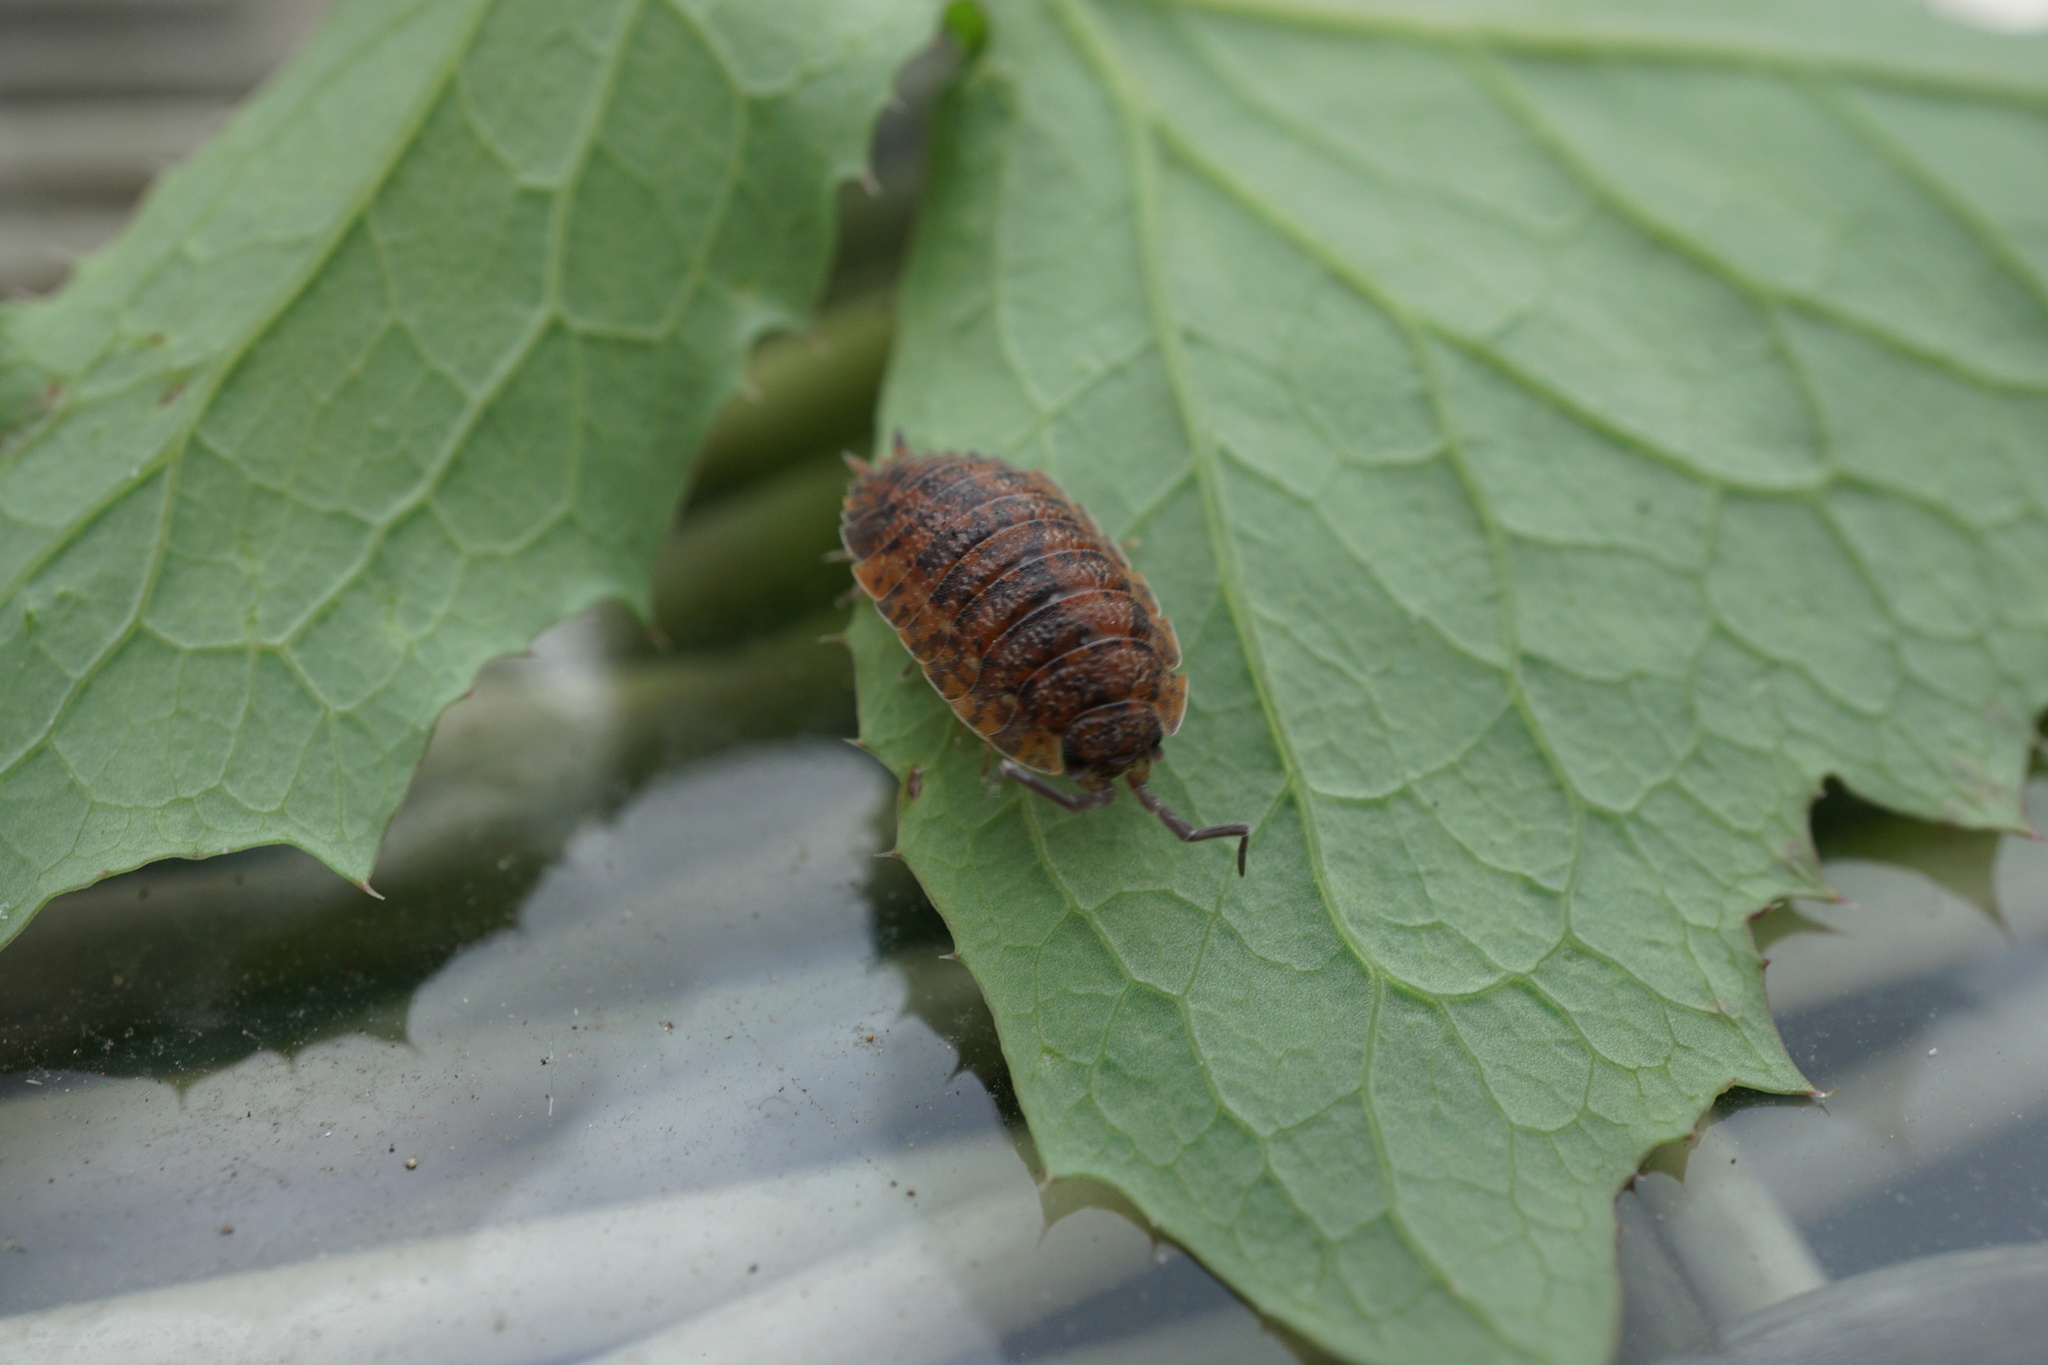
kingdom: Animalia
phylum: Arthropoda
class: Malacostraca
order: Isopoda
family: Porcellionidae
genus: Porcellio
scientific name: Porcellio scaber
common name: Common rough woodlouse
